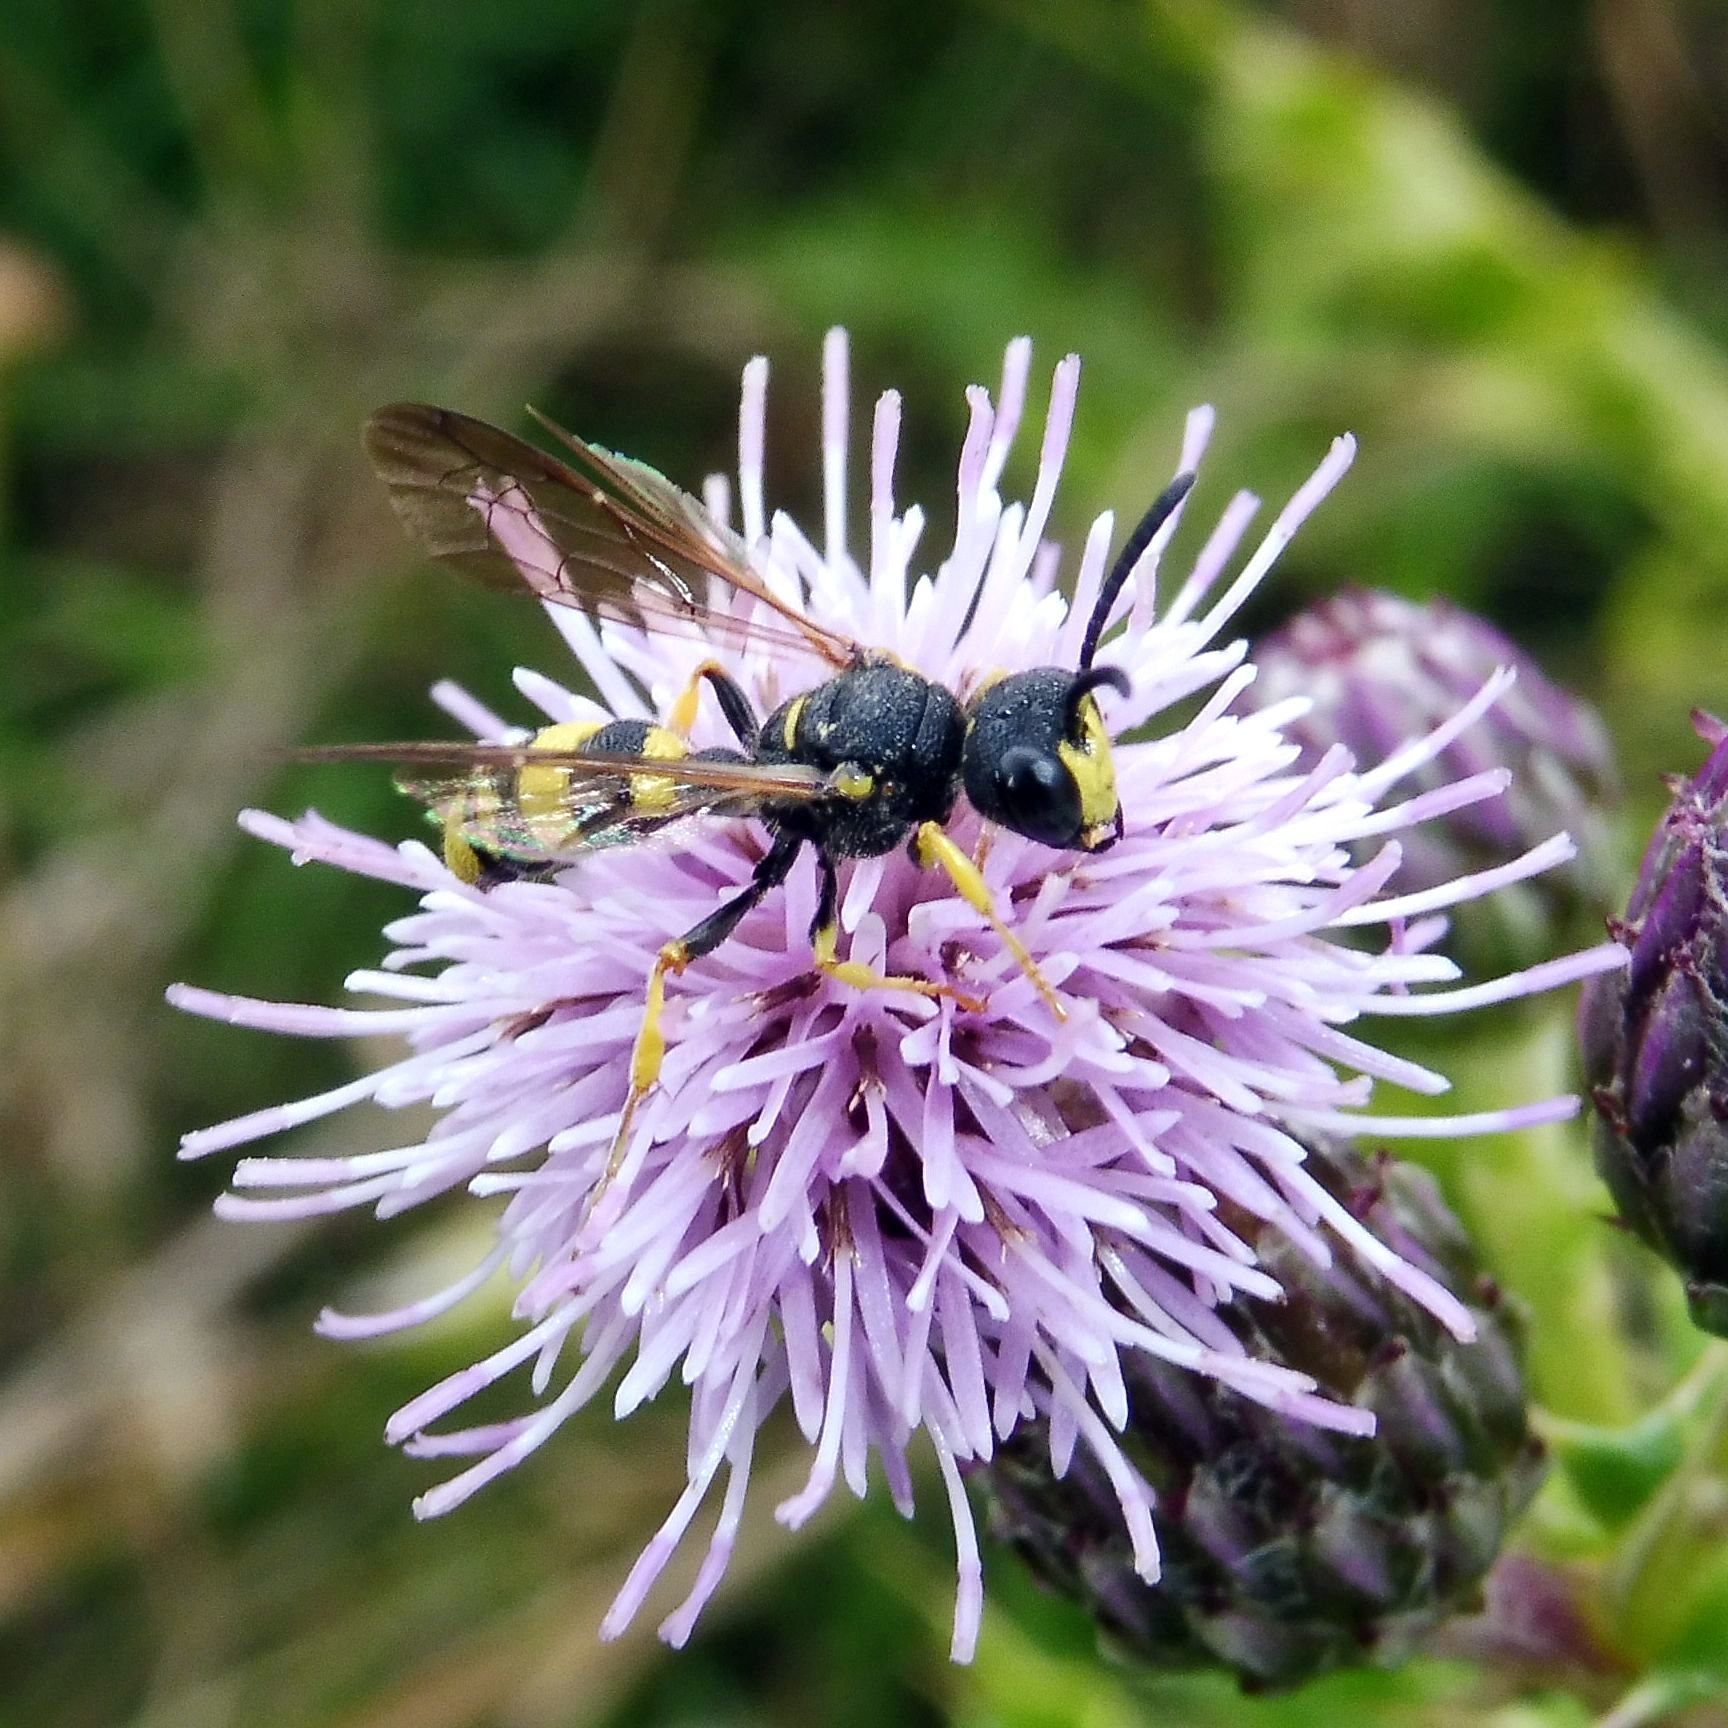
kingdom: Animalia
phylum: Arthropoda
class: Insecta
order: Hymenoptera
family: Crabronidae
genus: Cerceris
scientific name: Cerceris rybyensis
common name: Ornate tailed digger wasp
